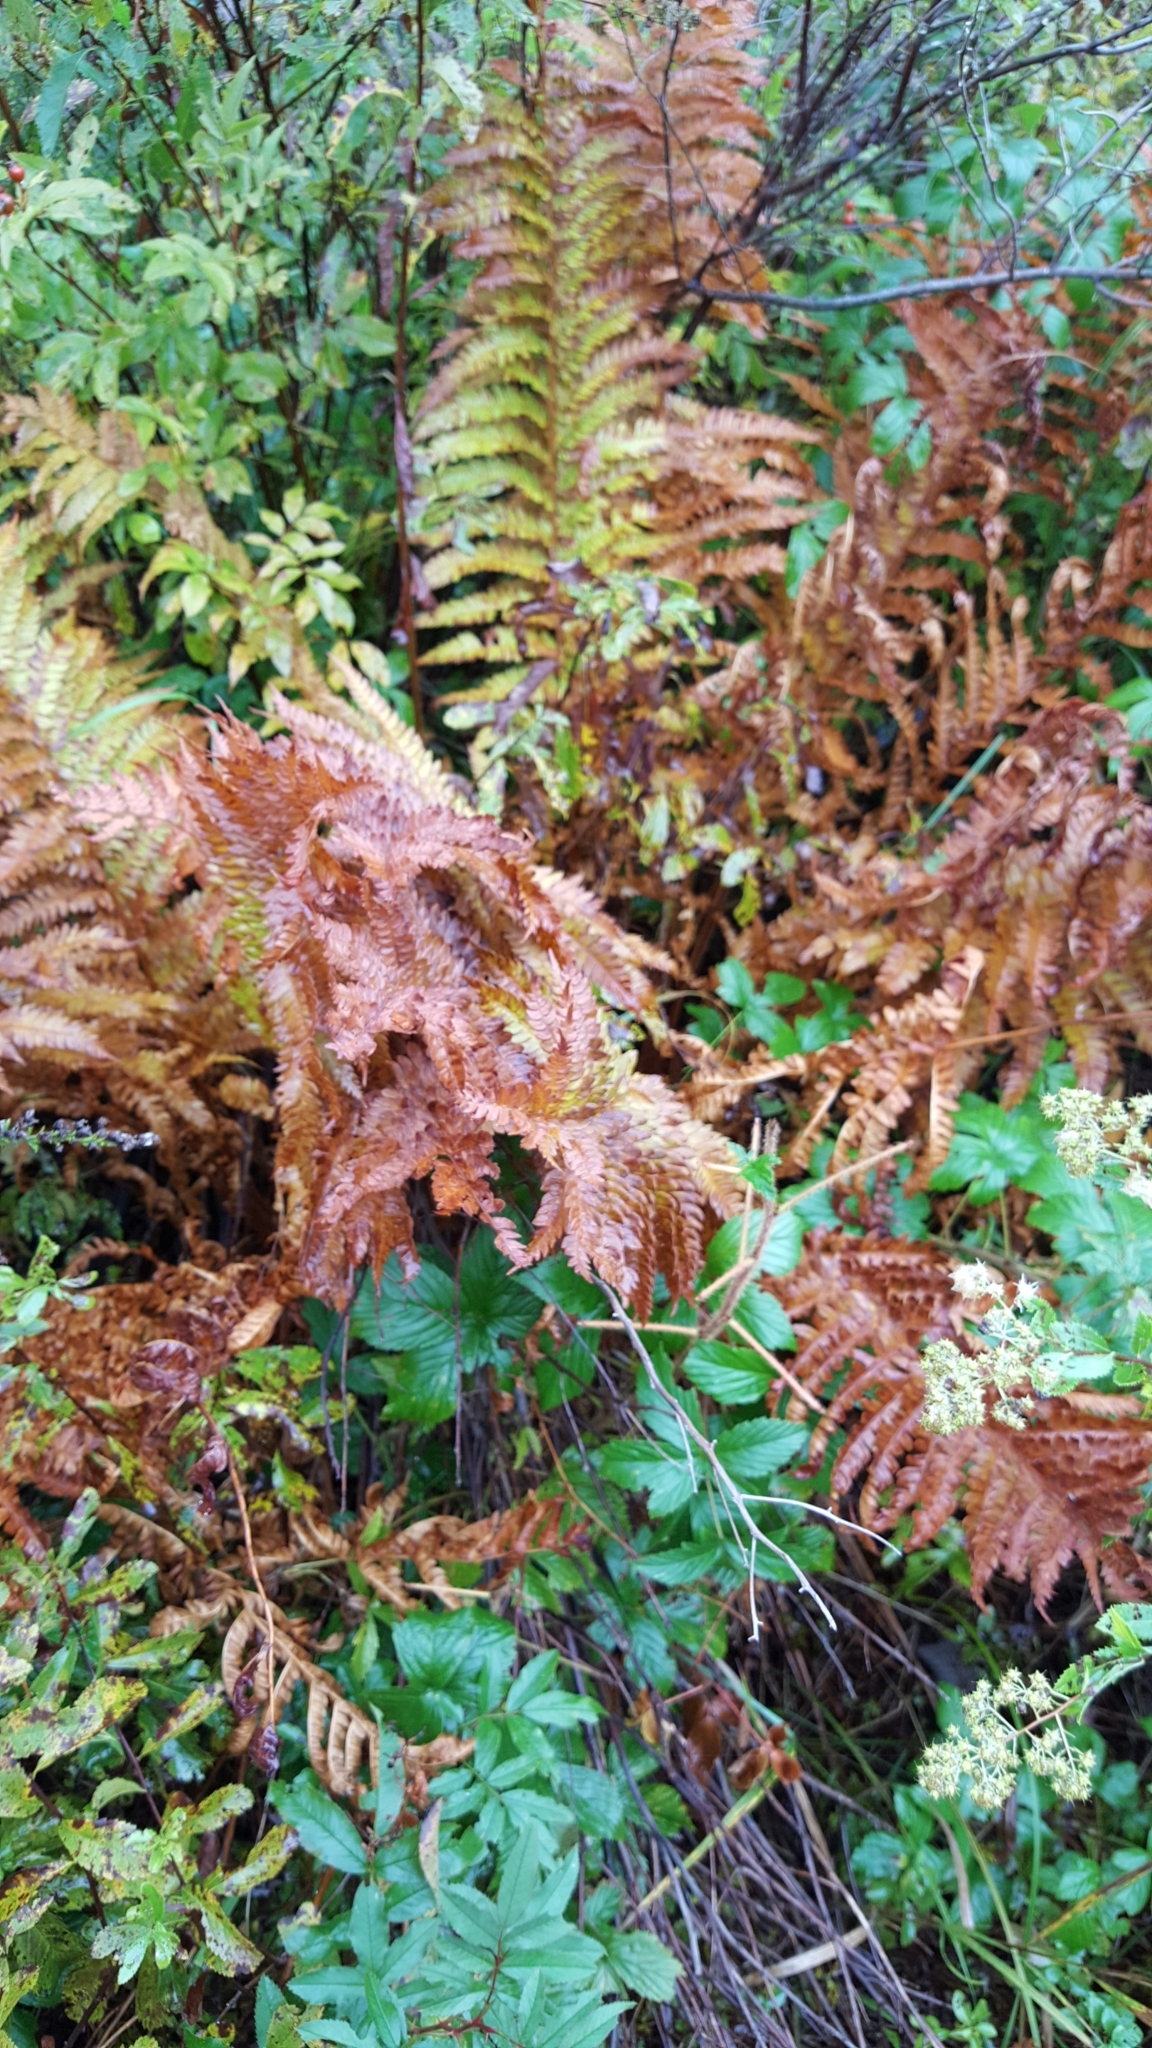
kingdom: Plantae
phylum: Tracheophyta
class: Polypodiopsida
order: Osmundales
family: Osmundaceae
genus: Osmundastrum
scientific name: Osmundastrum cinnamomeum
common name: Cinnamon fern
